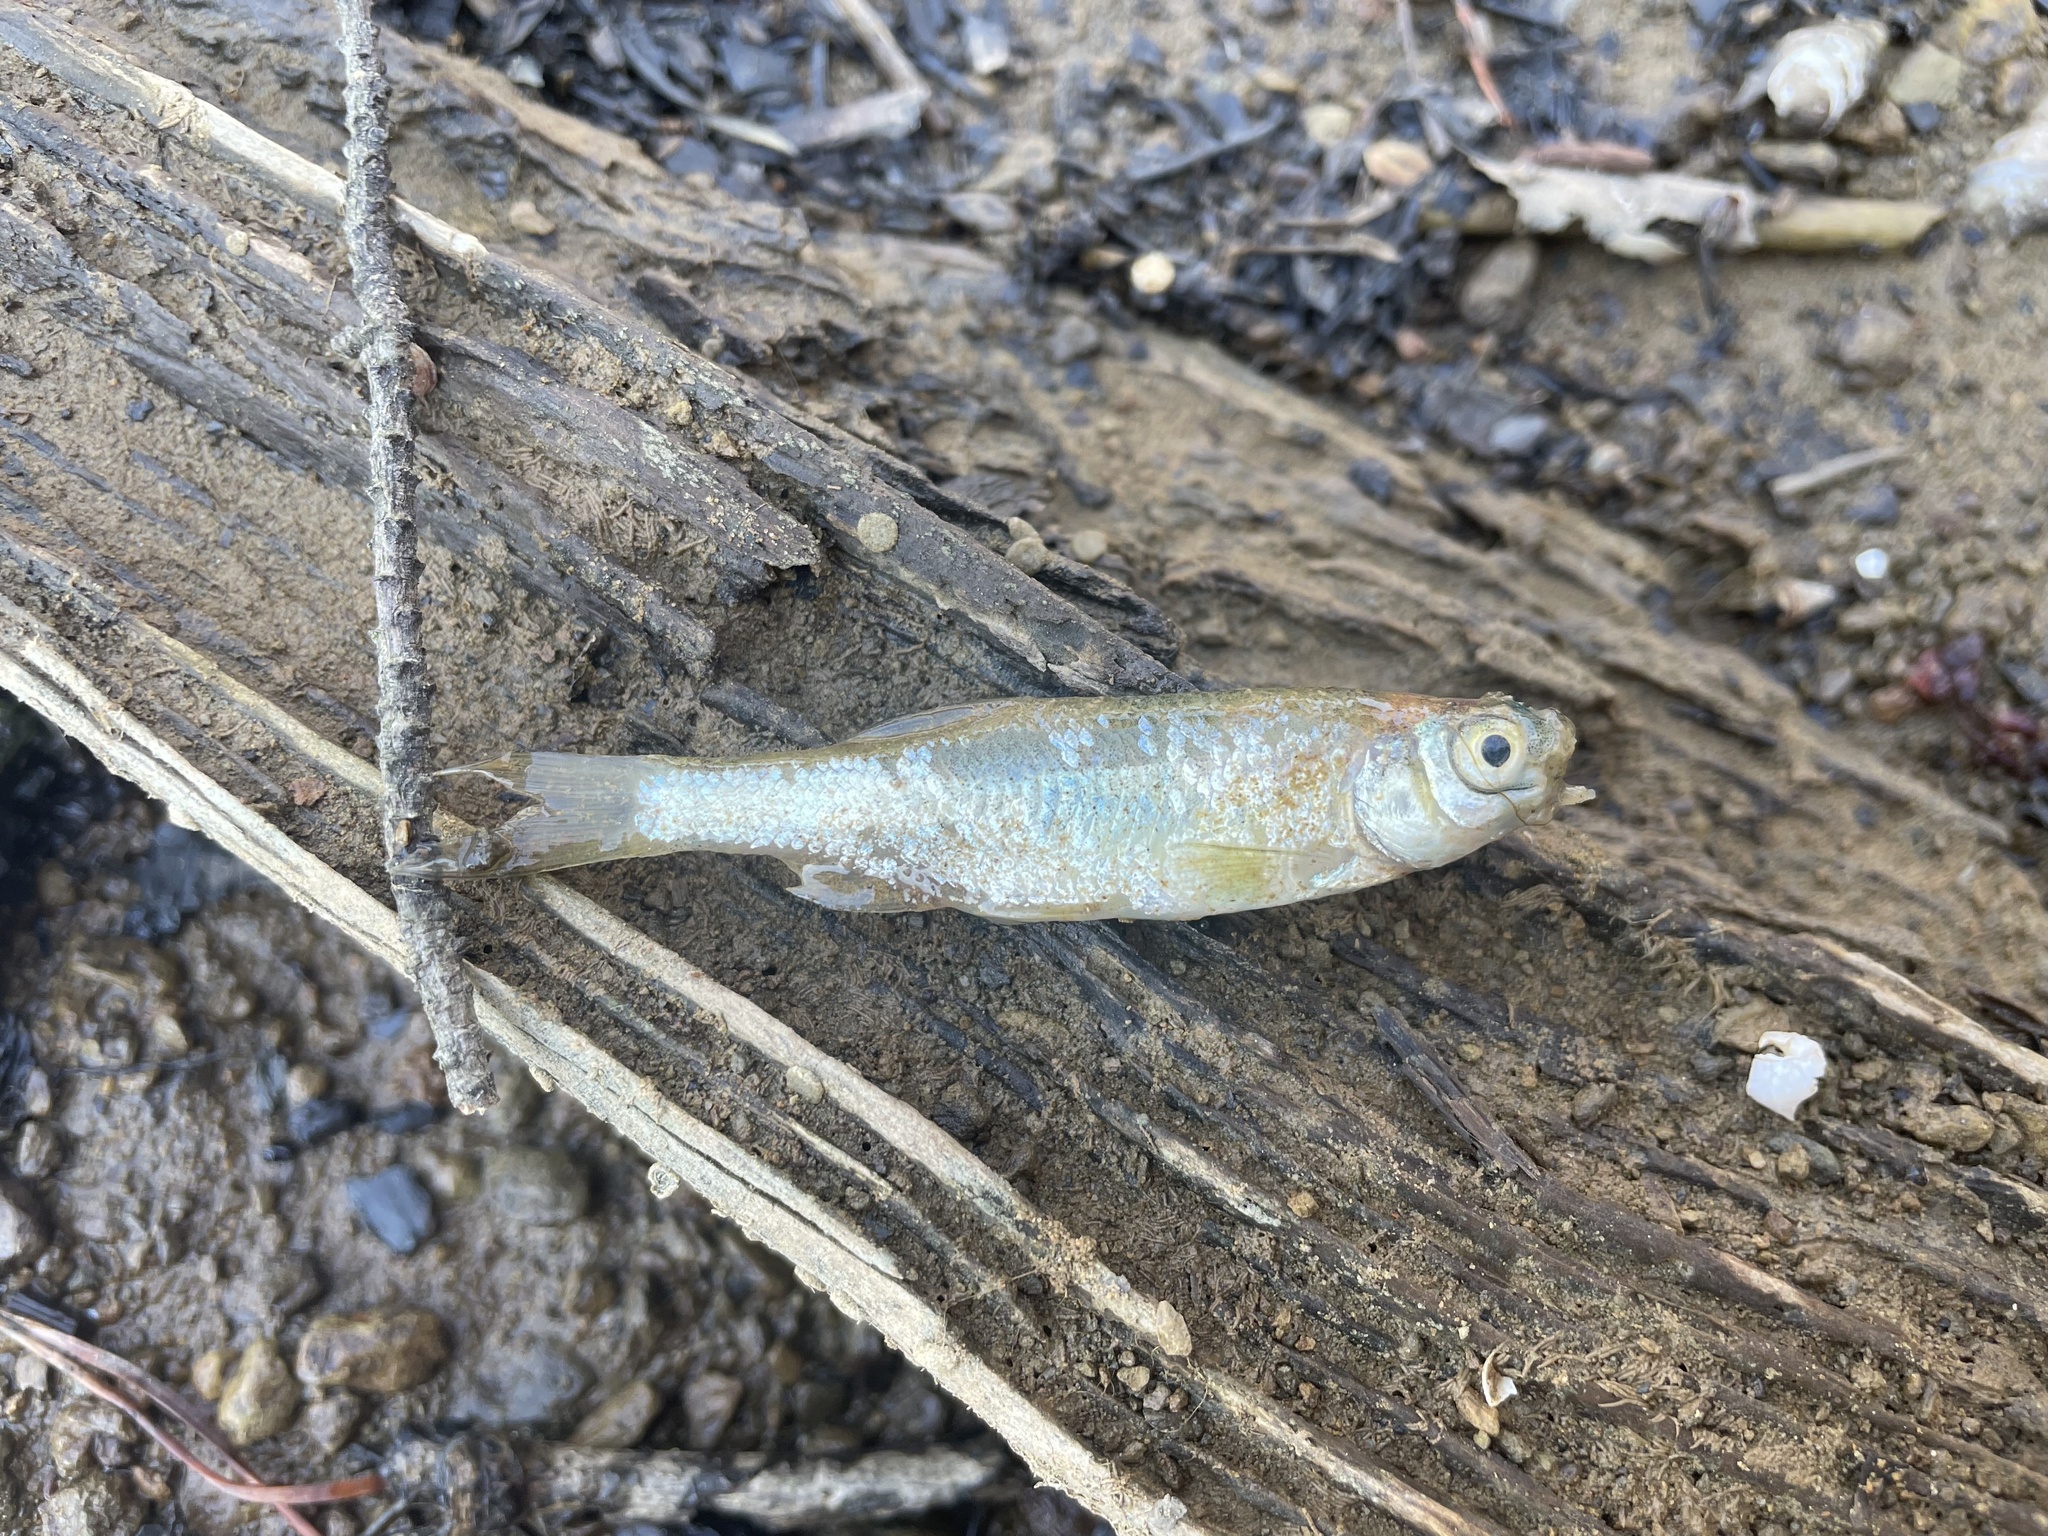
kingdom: Animalia
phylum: Chordata
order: Cypriniformes
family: Cyprinidae
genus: Notemigonus
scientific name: Notemigonus crysoleucas
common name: Golden shiner
